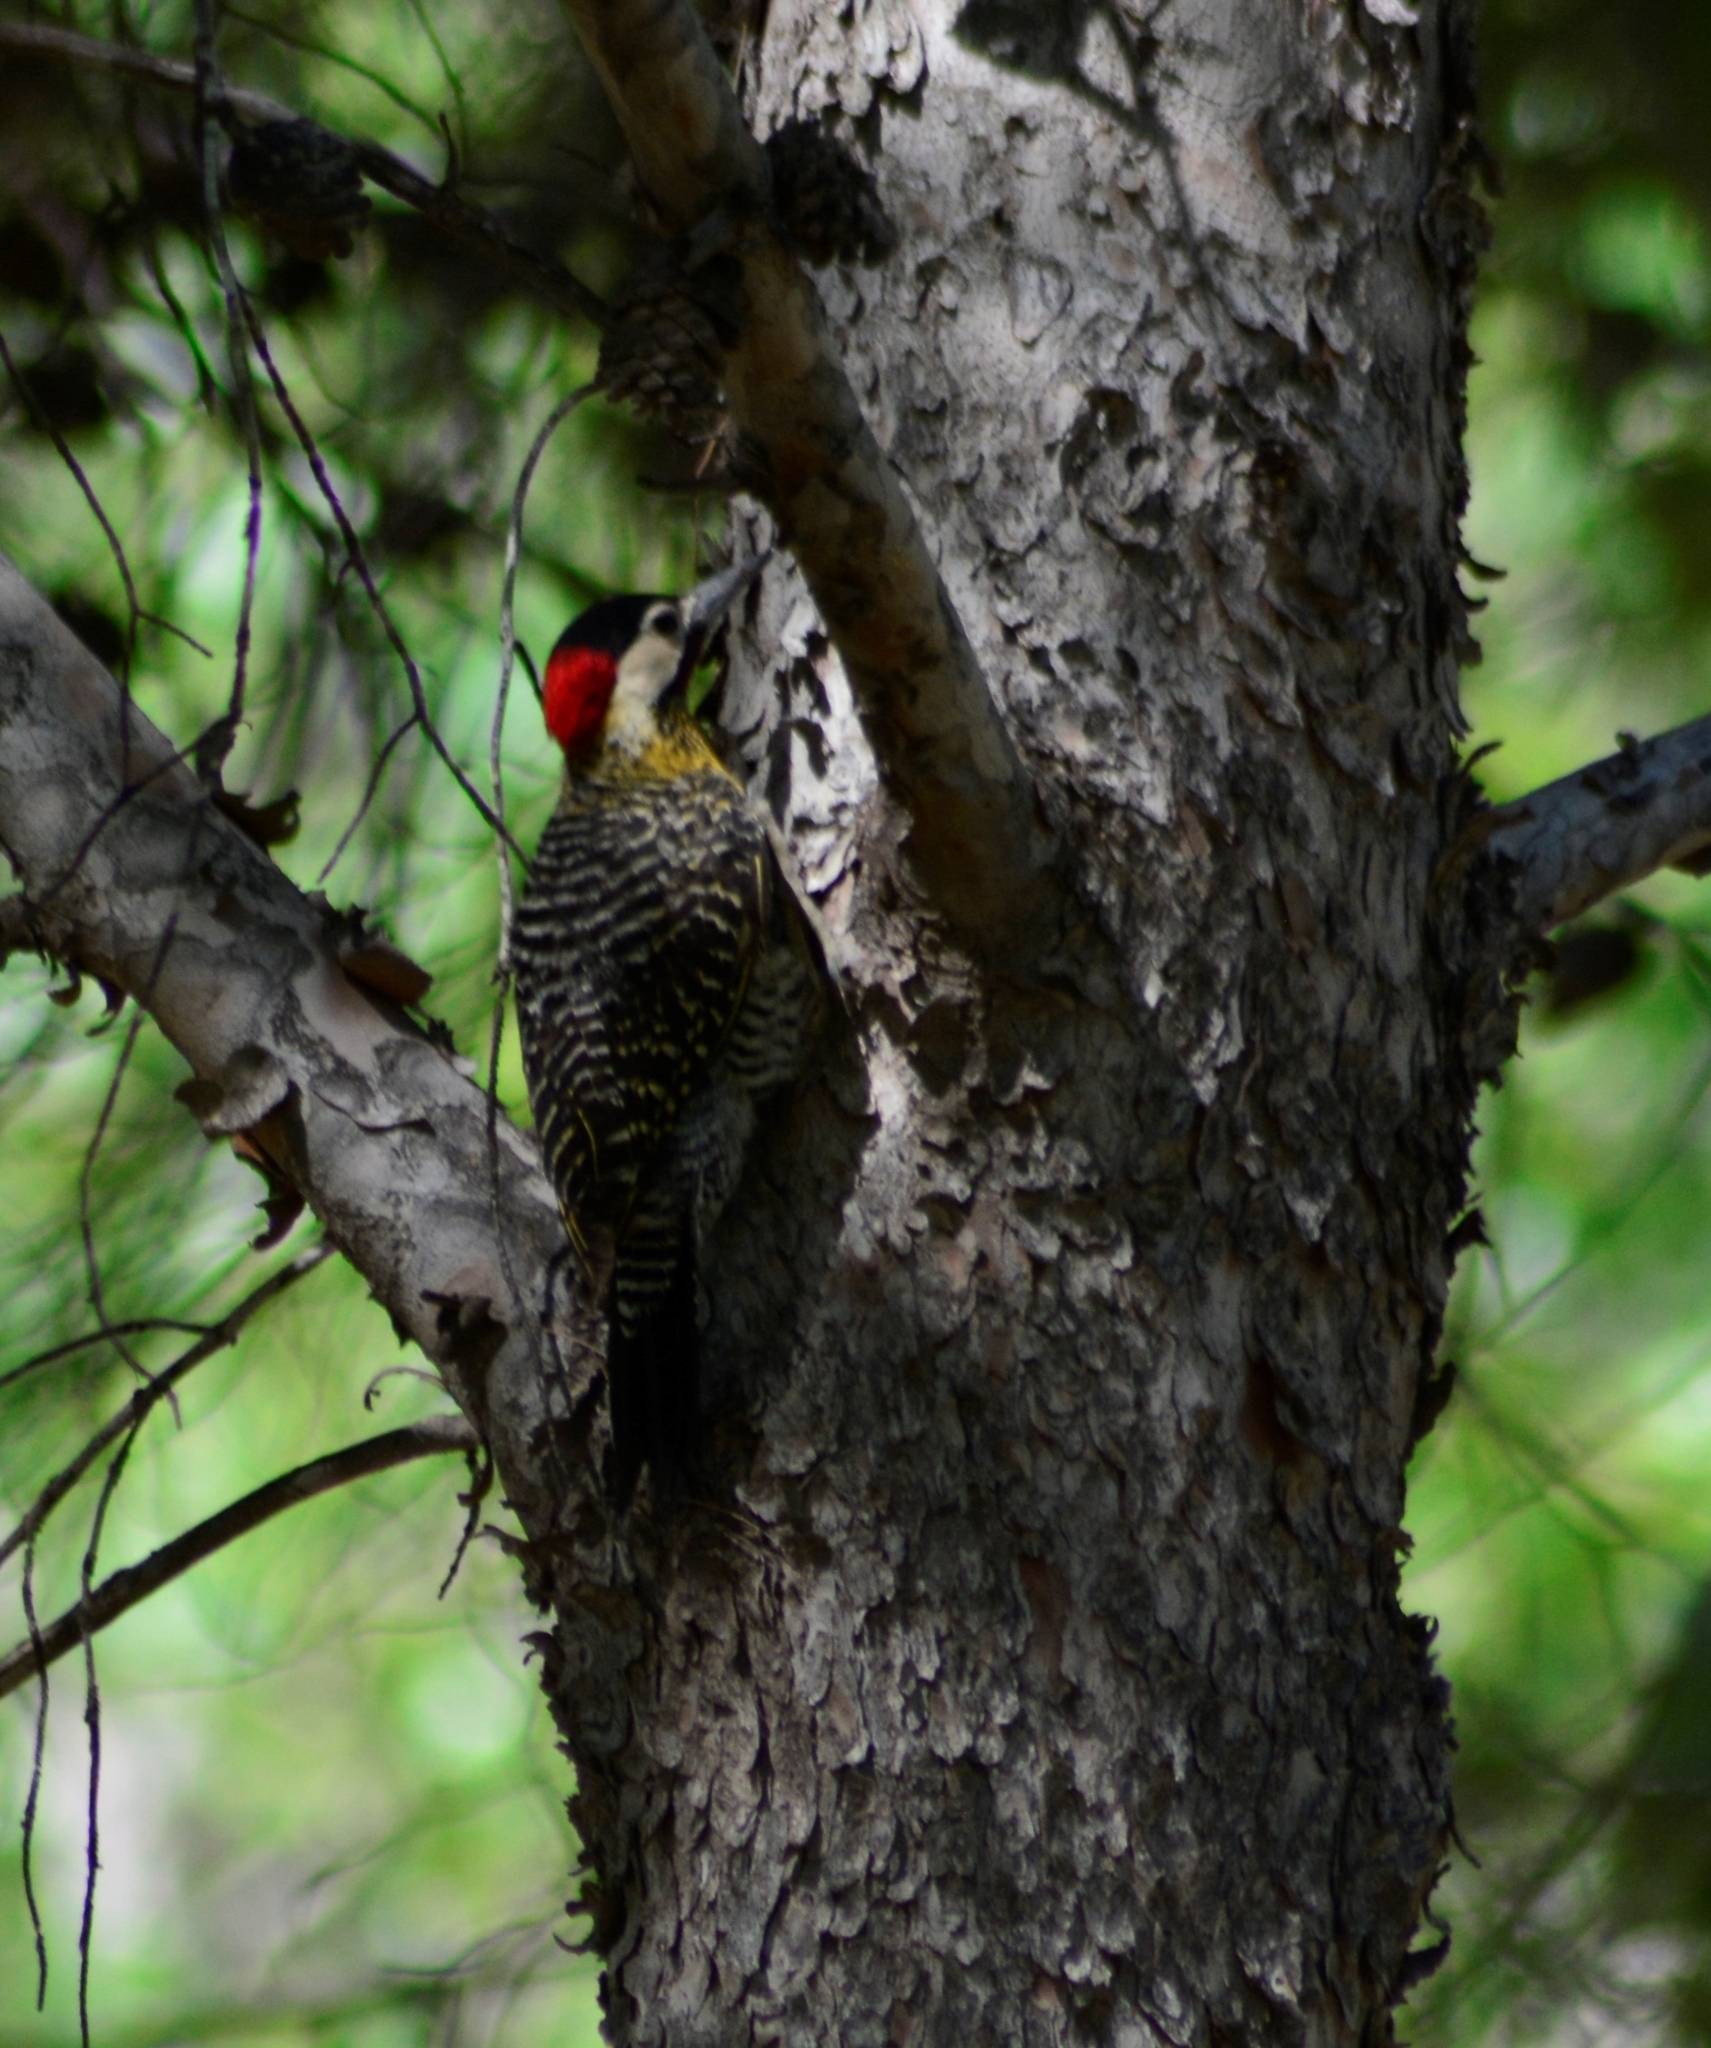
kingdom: Animalia
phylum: Chordata
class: Aves
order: Piciformes
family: Picidae
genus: Colaptes
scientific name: Colaptes melanochloros
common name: Green-barred woodpecker
